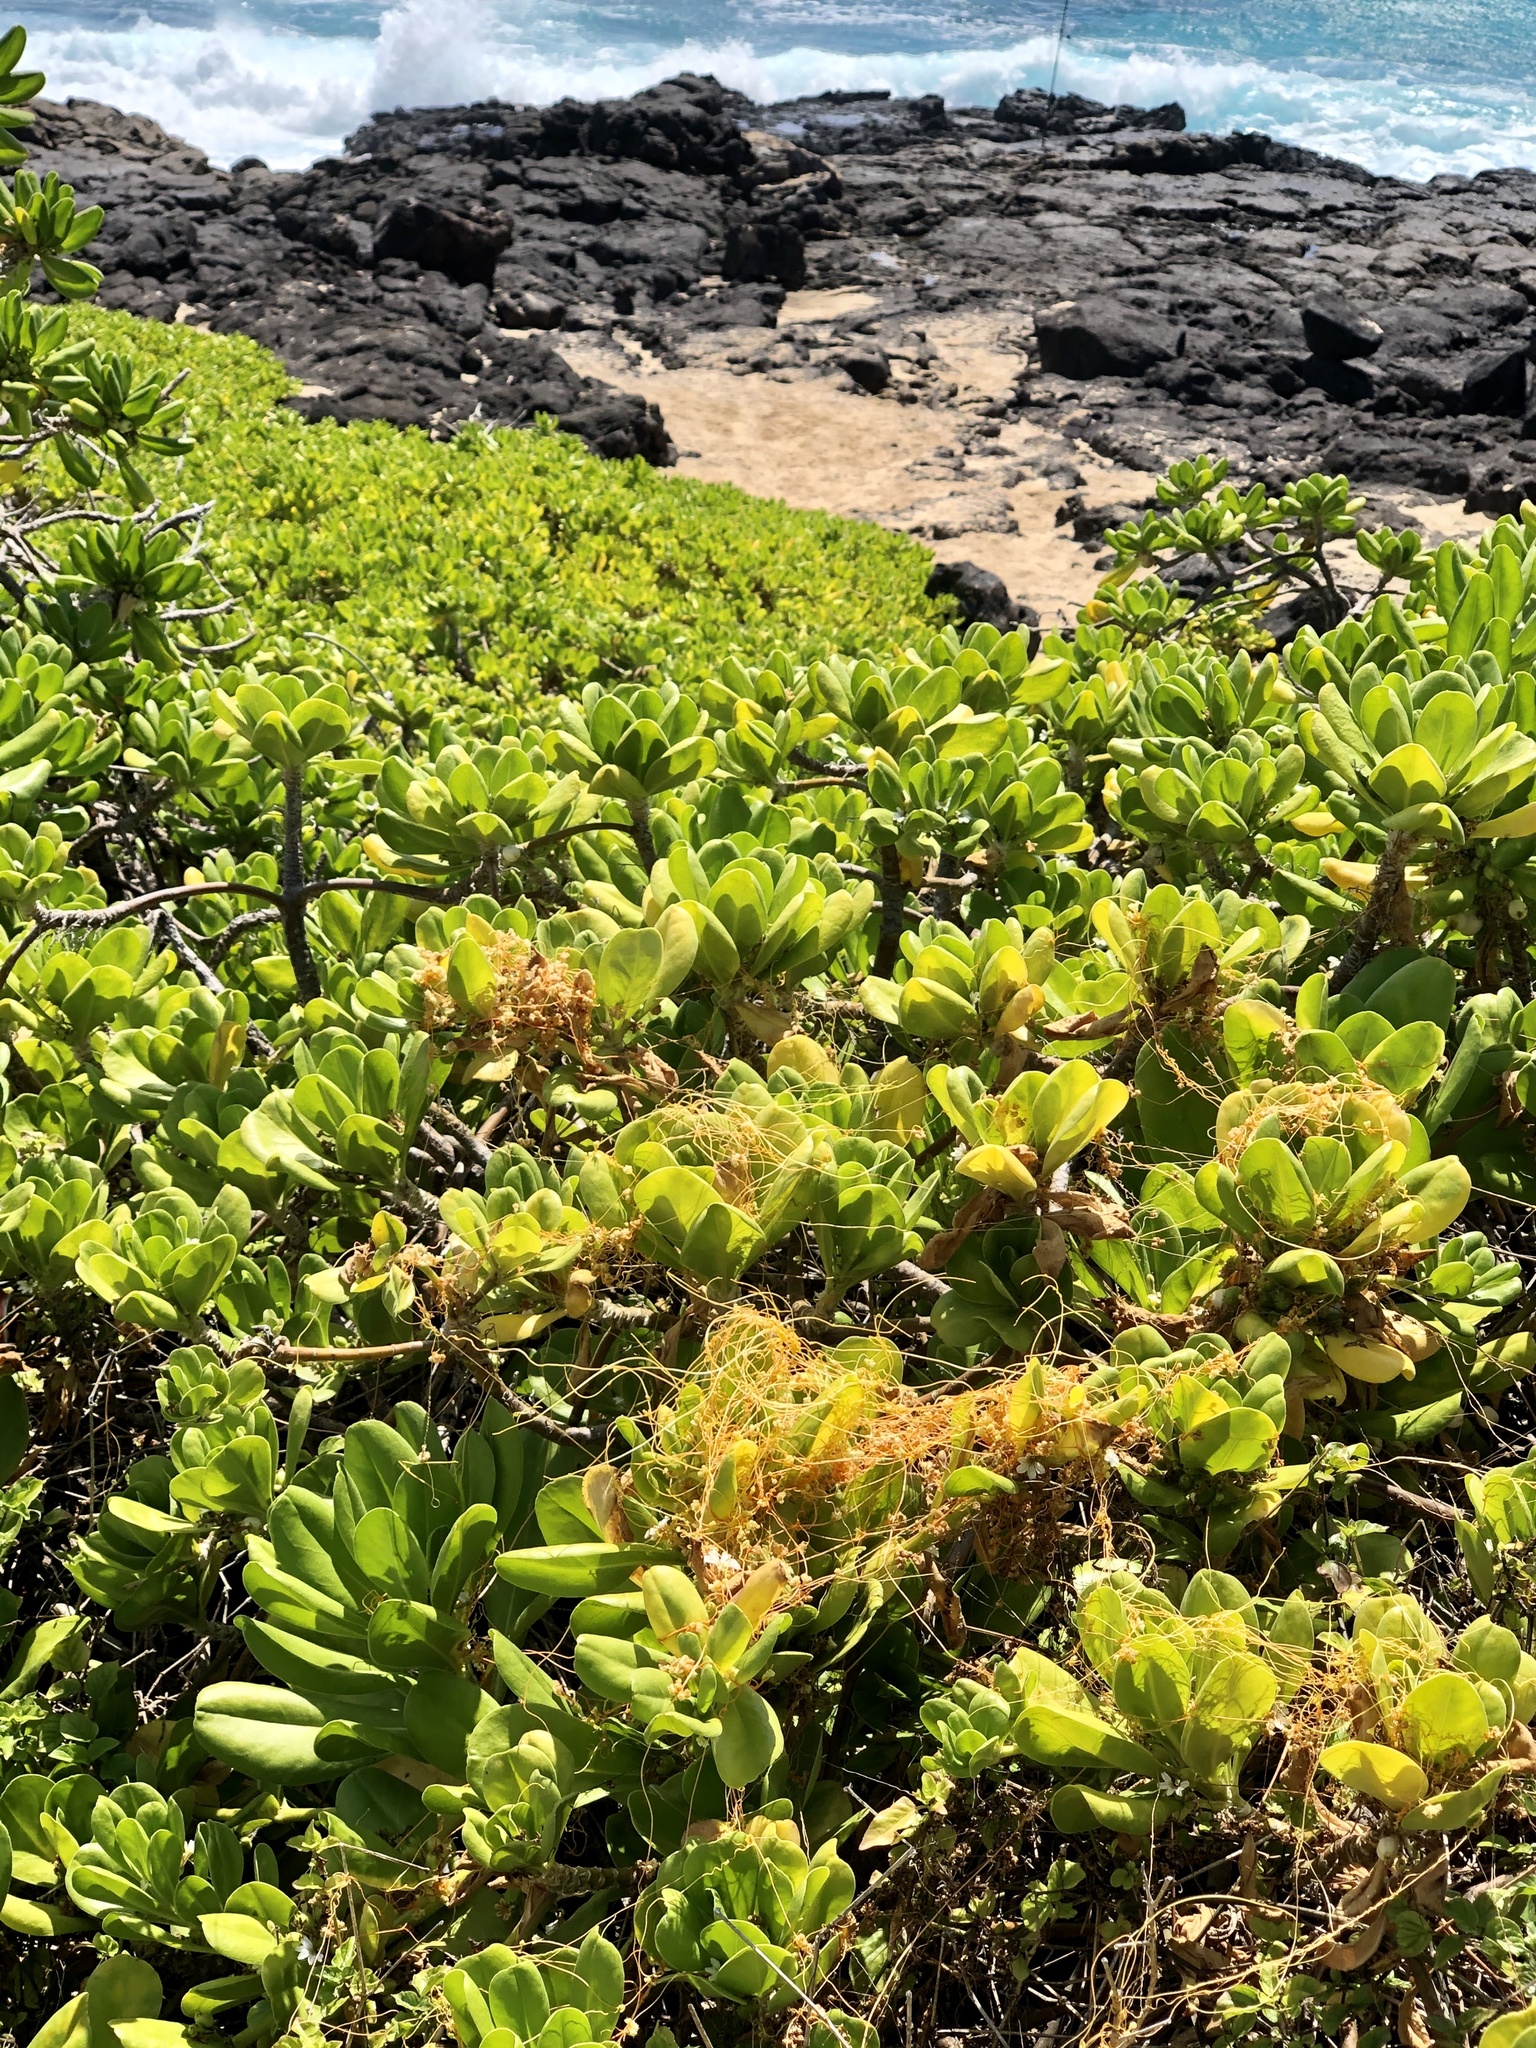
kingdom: Plantae
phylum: Tracheophyta
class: Magnoliopsida
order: Solanales
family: Convolvulaceae
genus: Cuscuta
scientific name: Cuscuta sandwichiana
